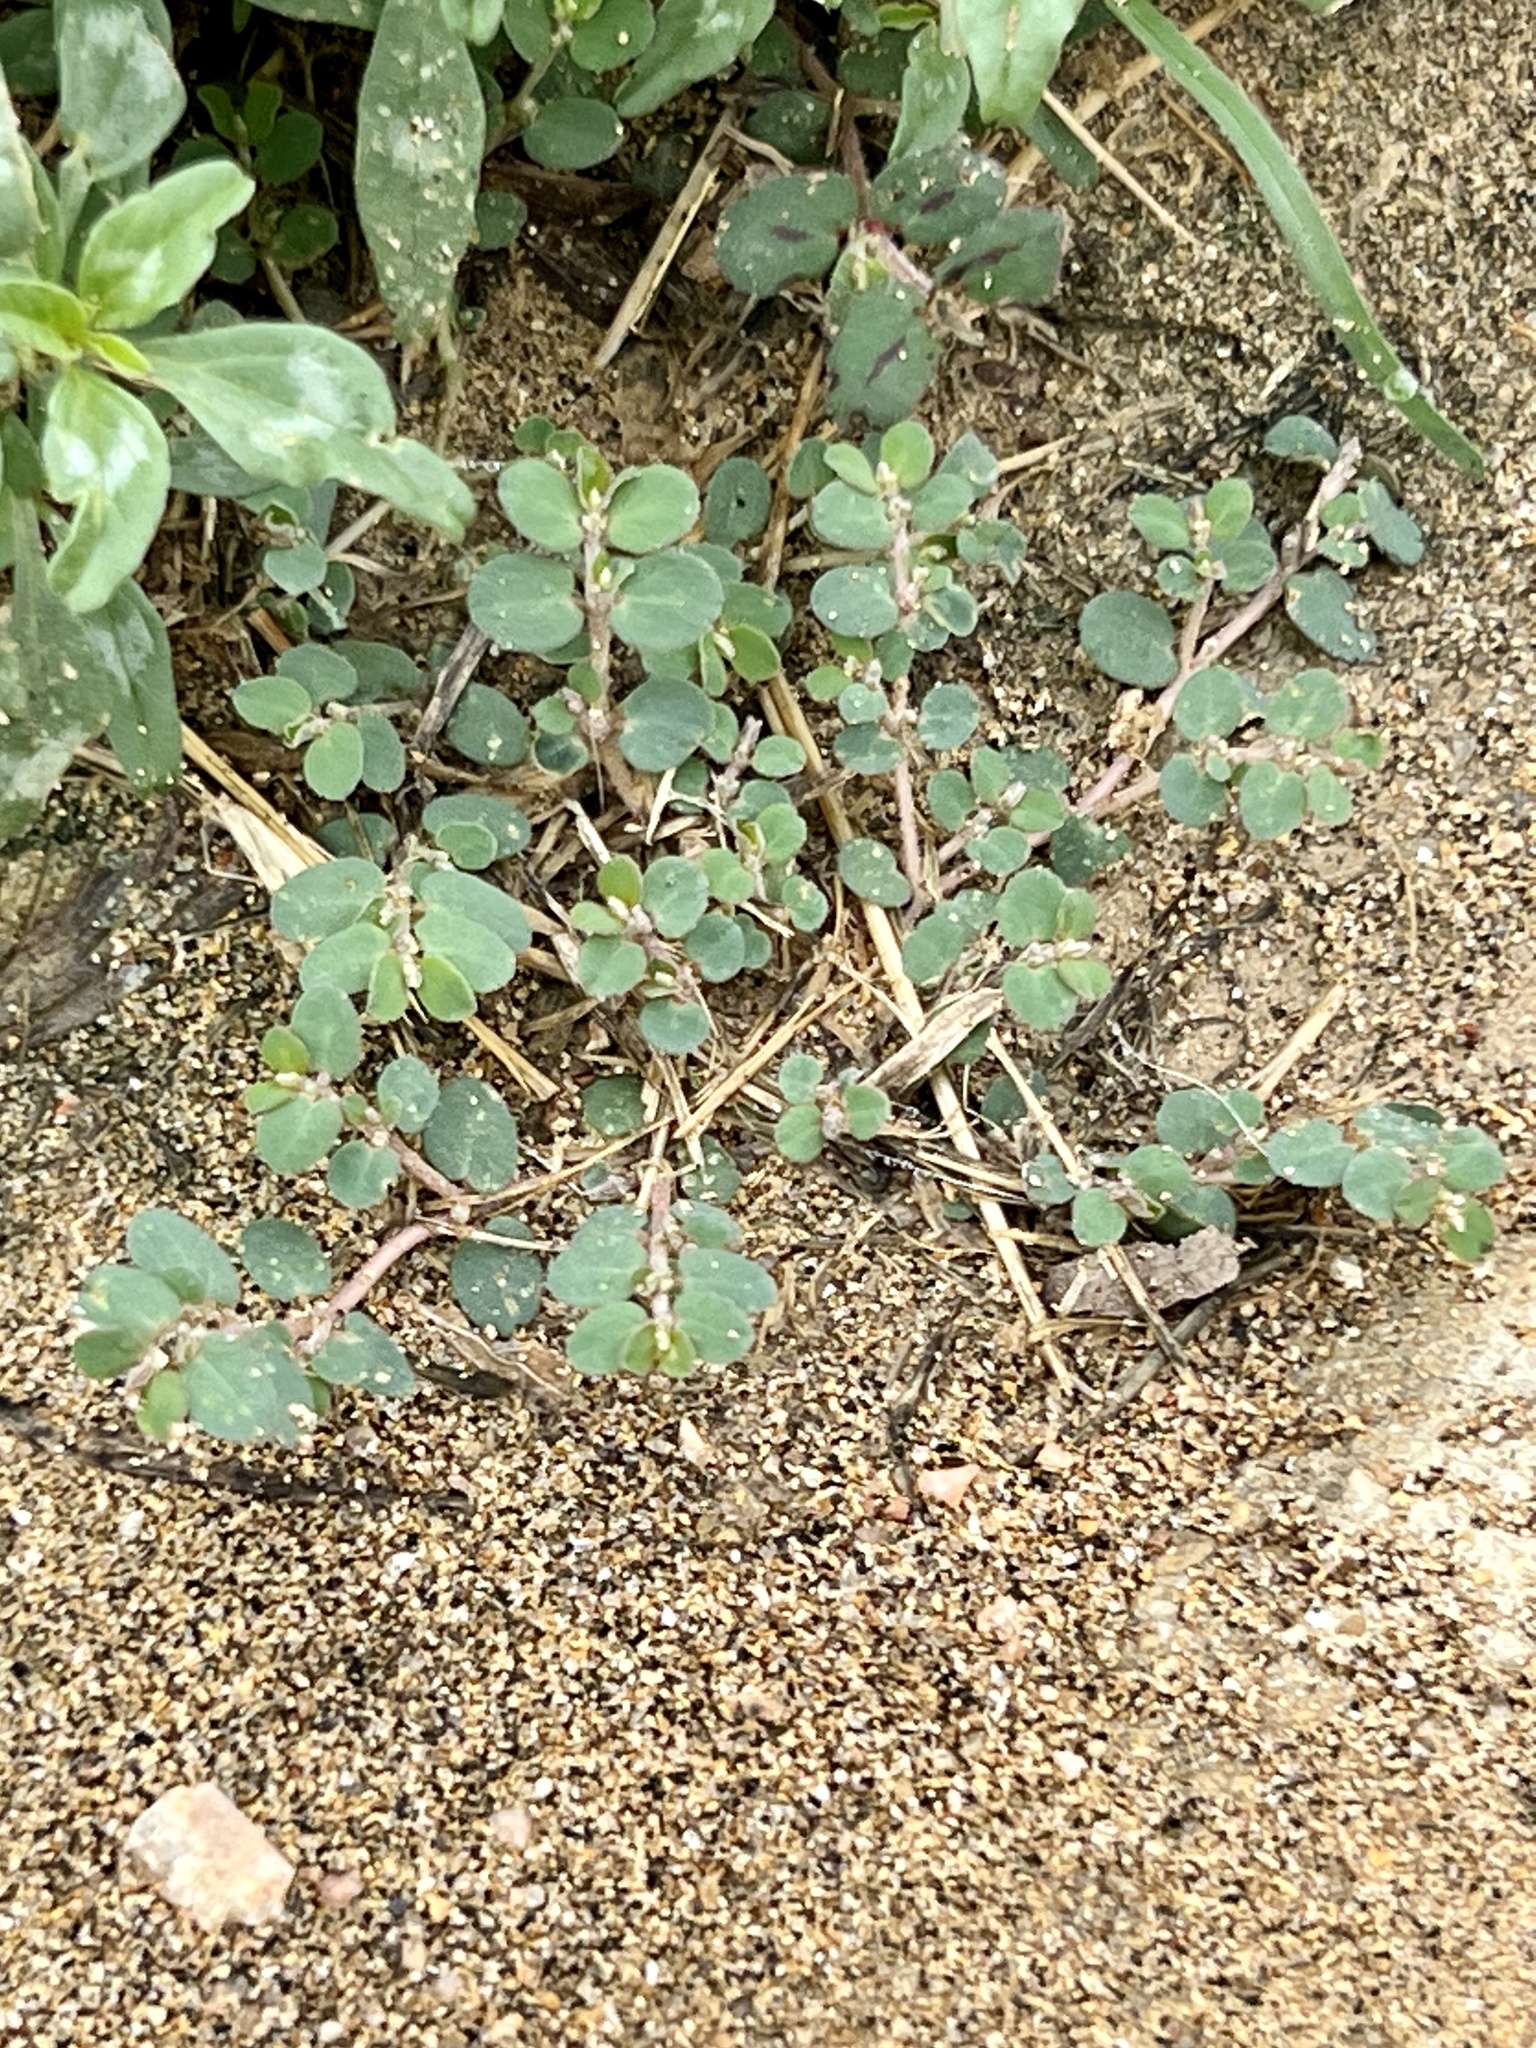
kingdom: Plantae
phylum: Tracheophyta
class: Magnoliopsida
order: Malpighiales
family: Euphorbiaceae
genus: Euphorbia
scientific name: Euphorbia prostrata
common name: Prostrate sandmat
